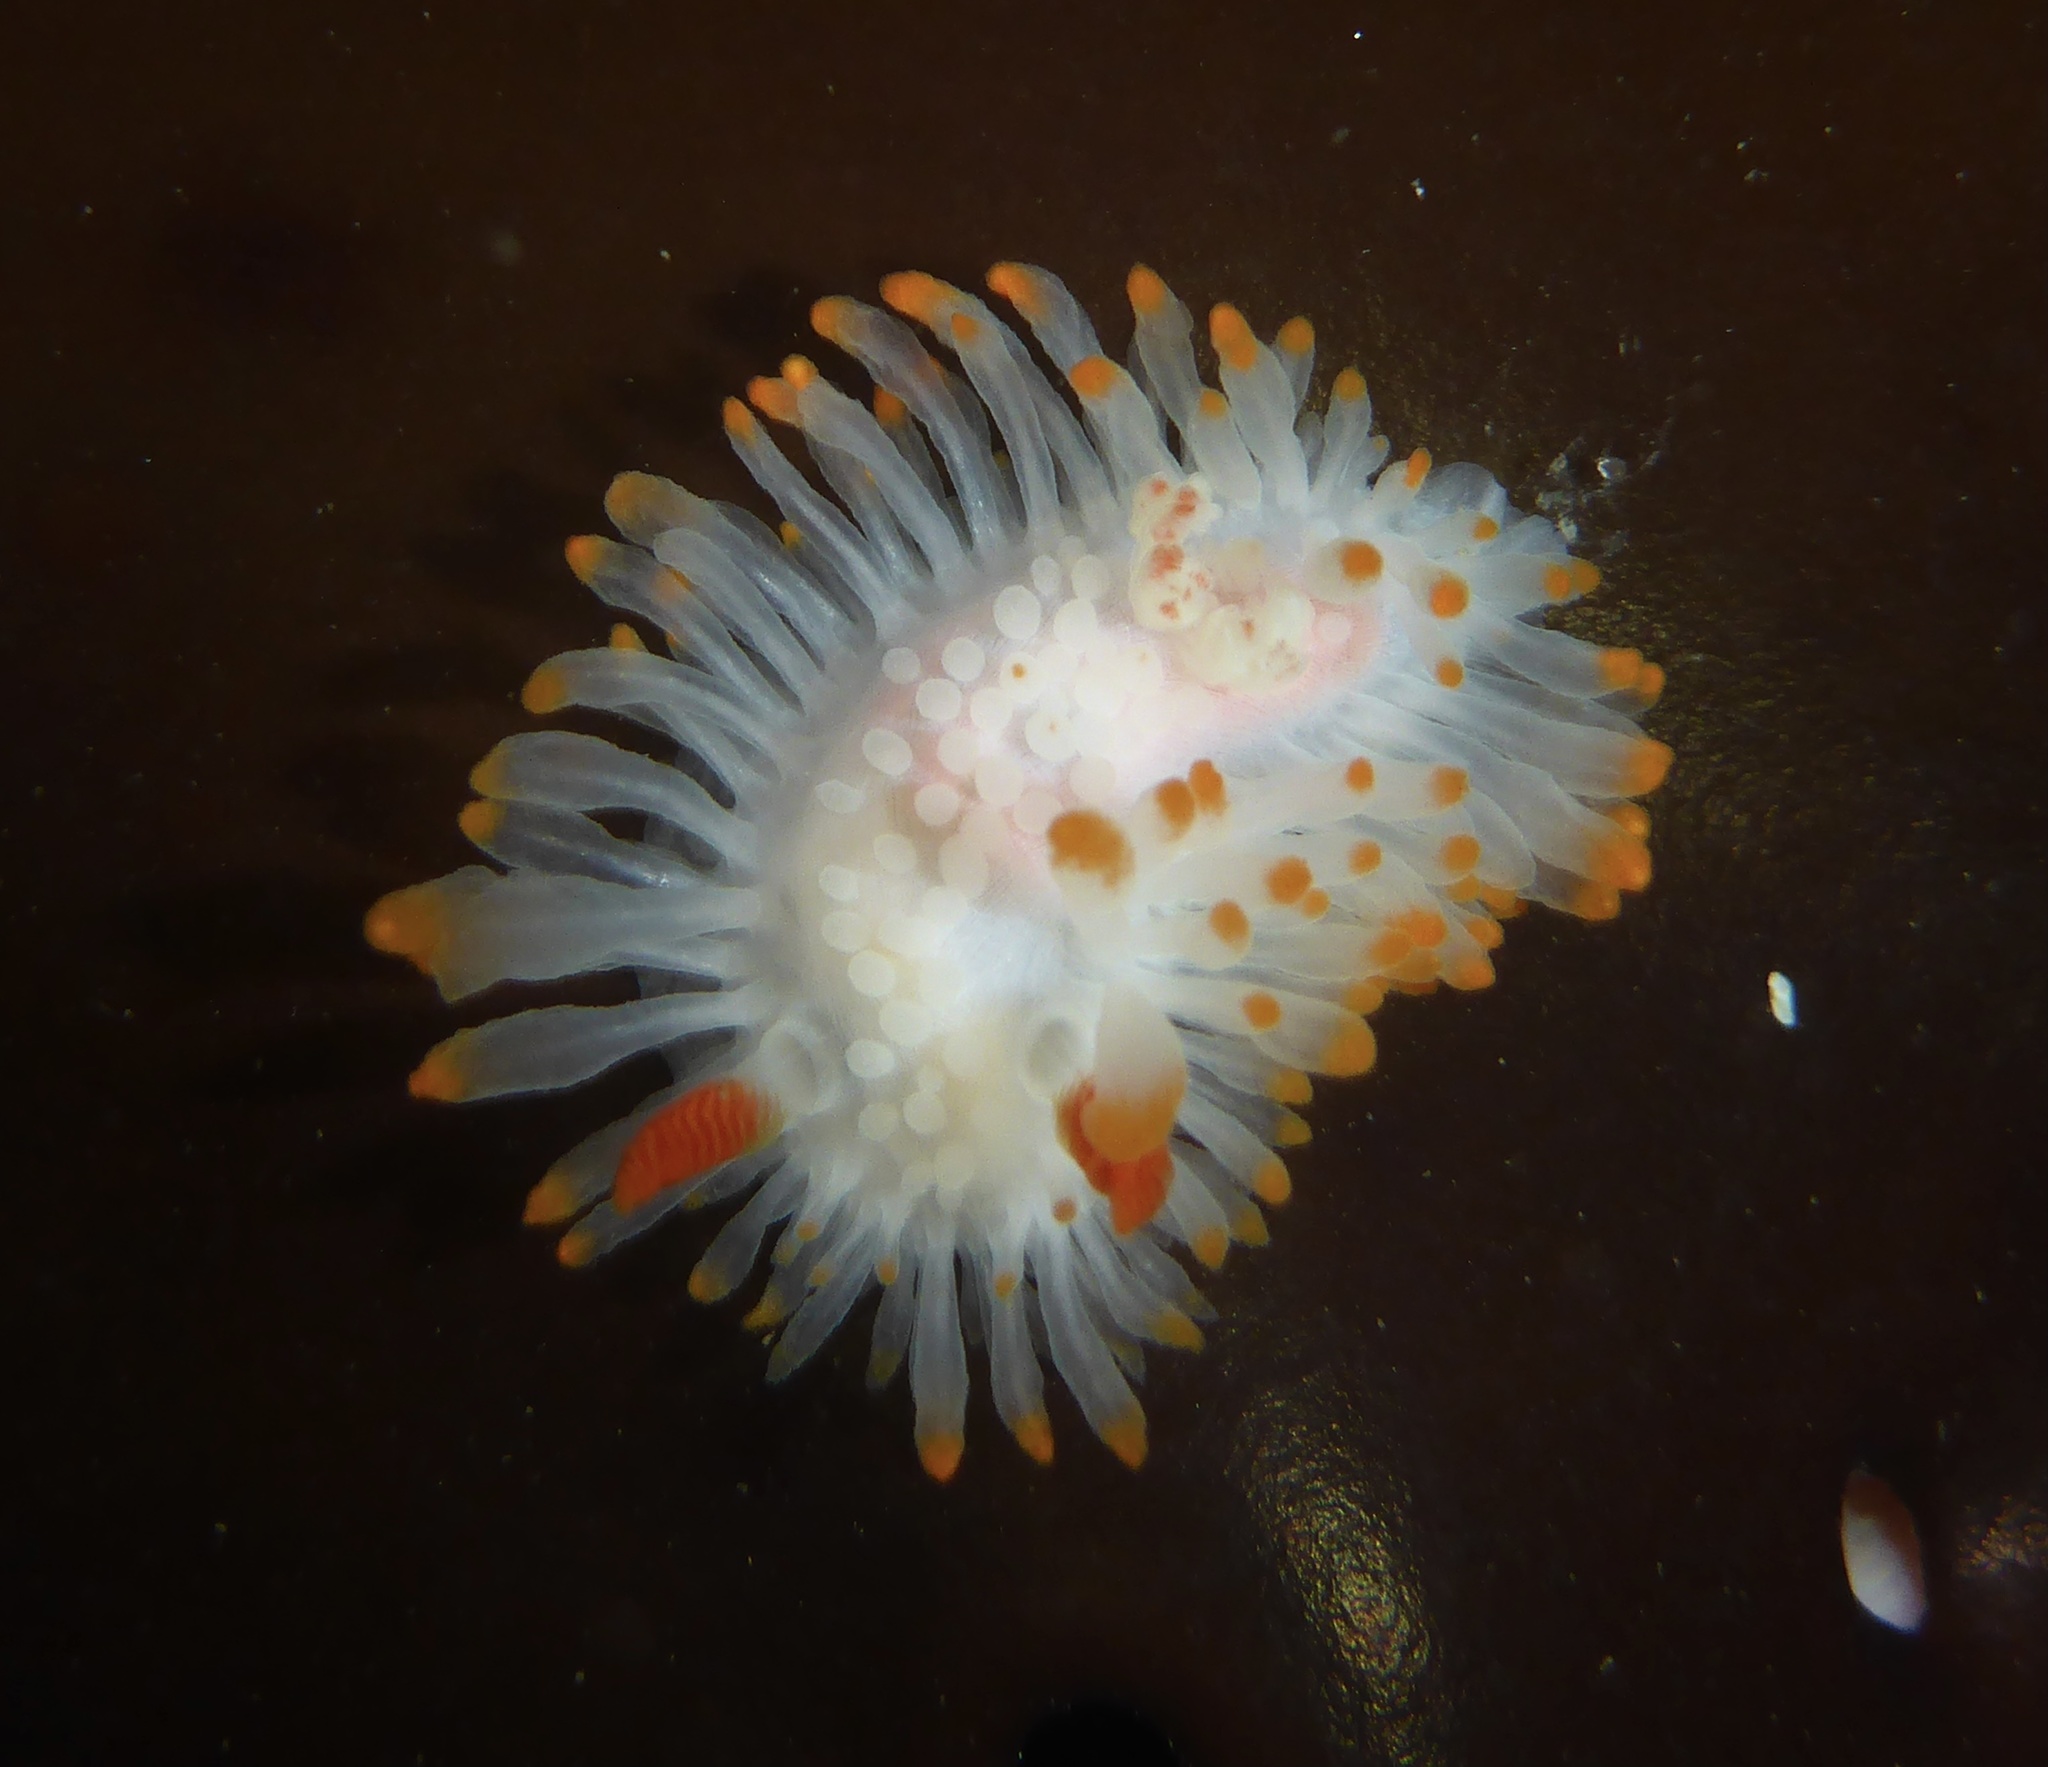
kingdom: Animalia
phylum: Mollusca
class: Gastropoda
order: Nudibranchia
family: Polyceridae
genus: Limacia
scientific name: Limacia cockerelli
